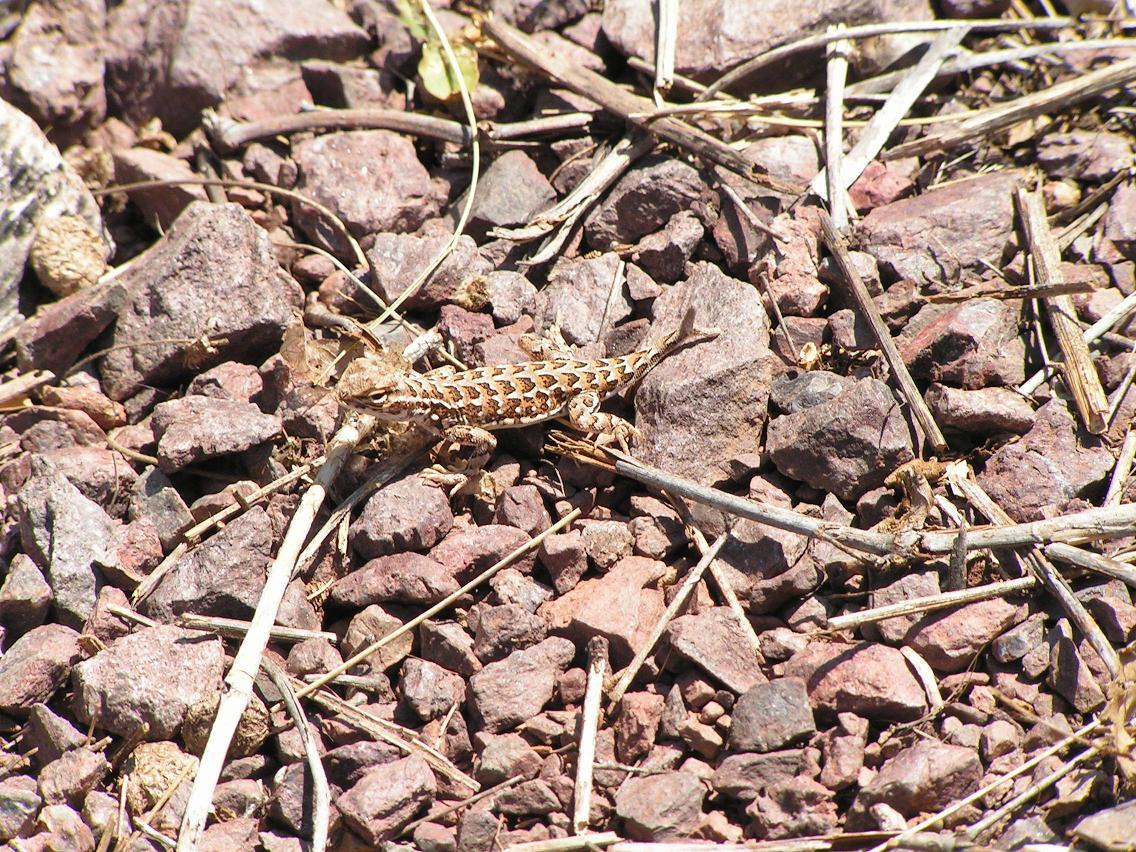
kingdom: Animalia
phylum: Chordata
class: Squamata
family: Phrynosomatidae
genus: Holbrookia
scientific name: Holbrookia elegans
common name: Elegant earless lizard
